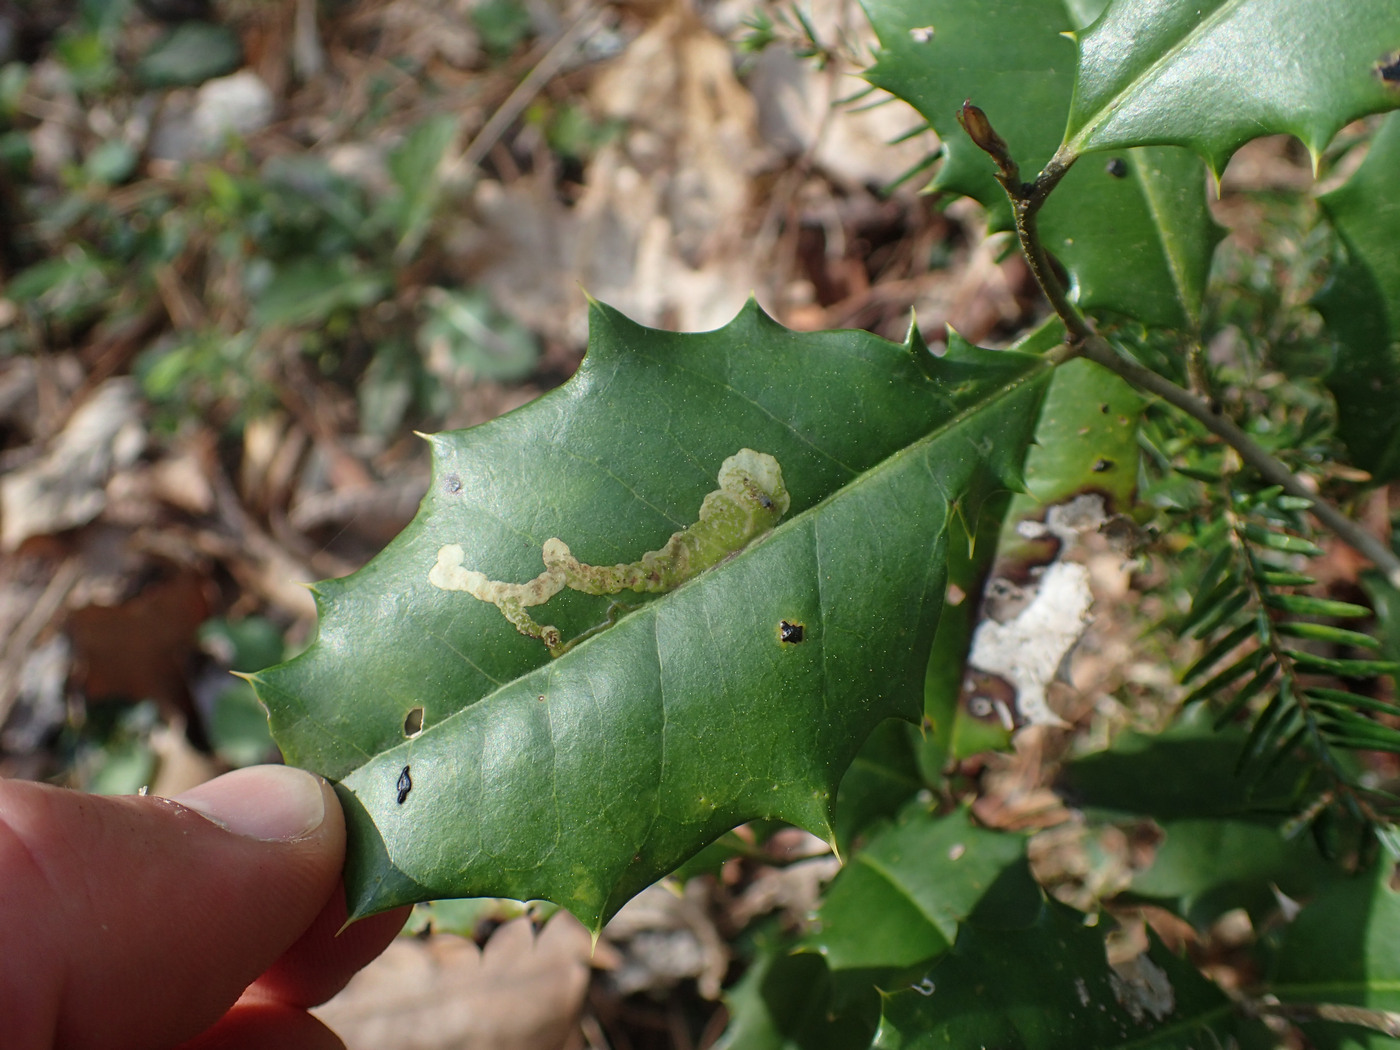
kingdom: Animalia
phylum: Arthropoda
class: Insecta
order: Diptera
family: Agromyzidae
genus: Phytomyza
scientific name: Phytomyza ilicicola
